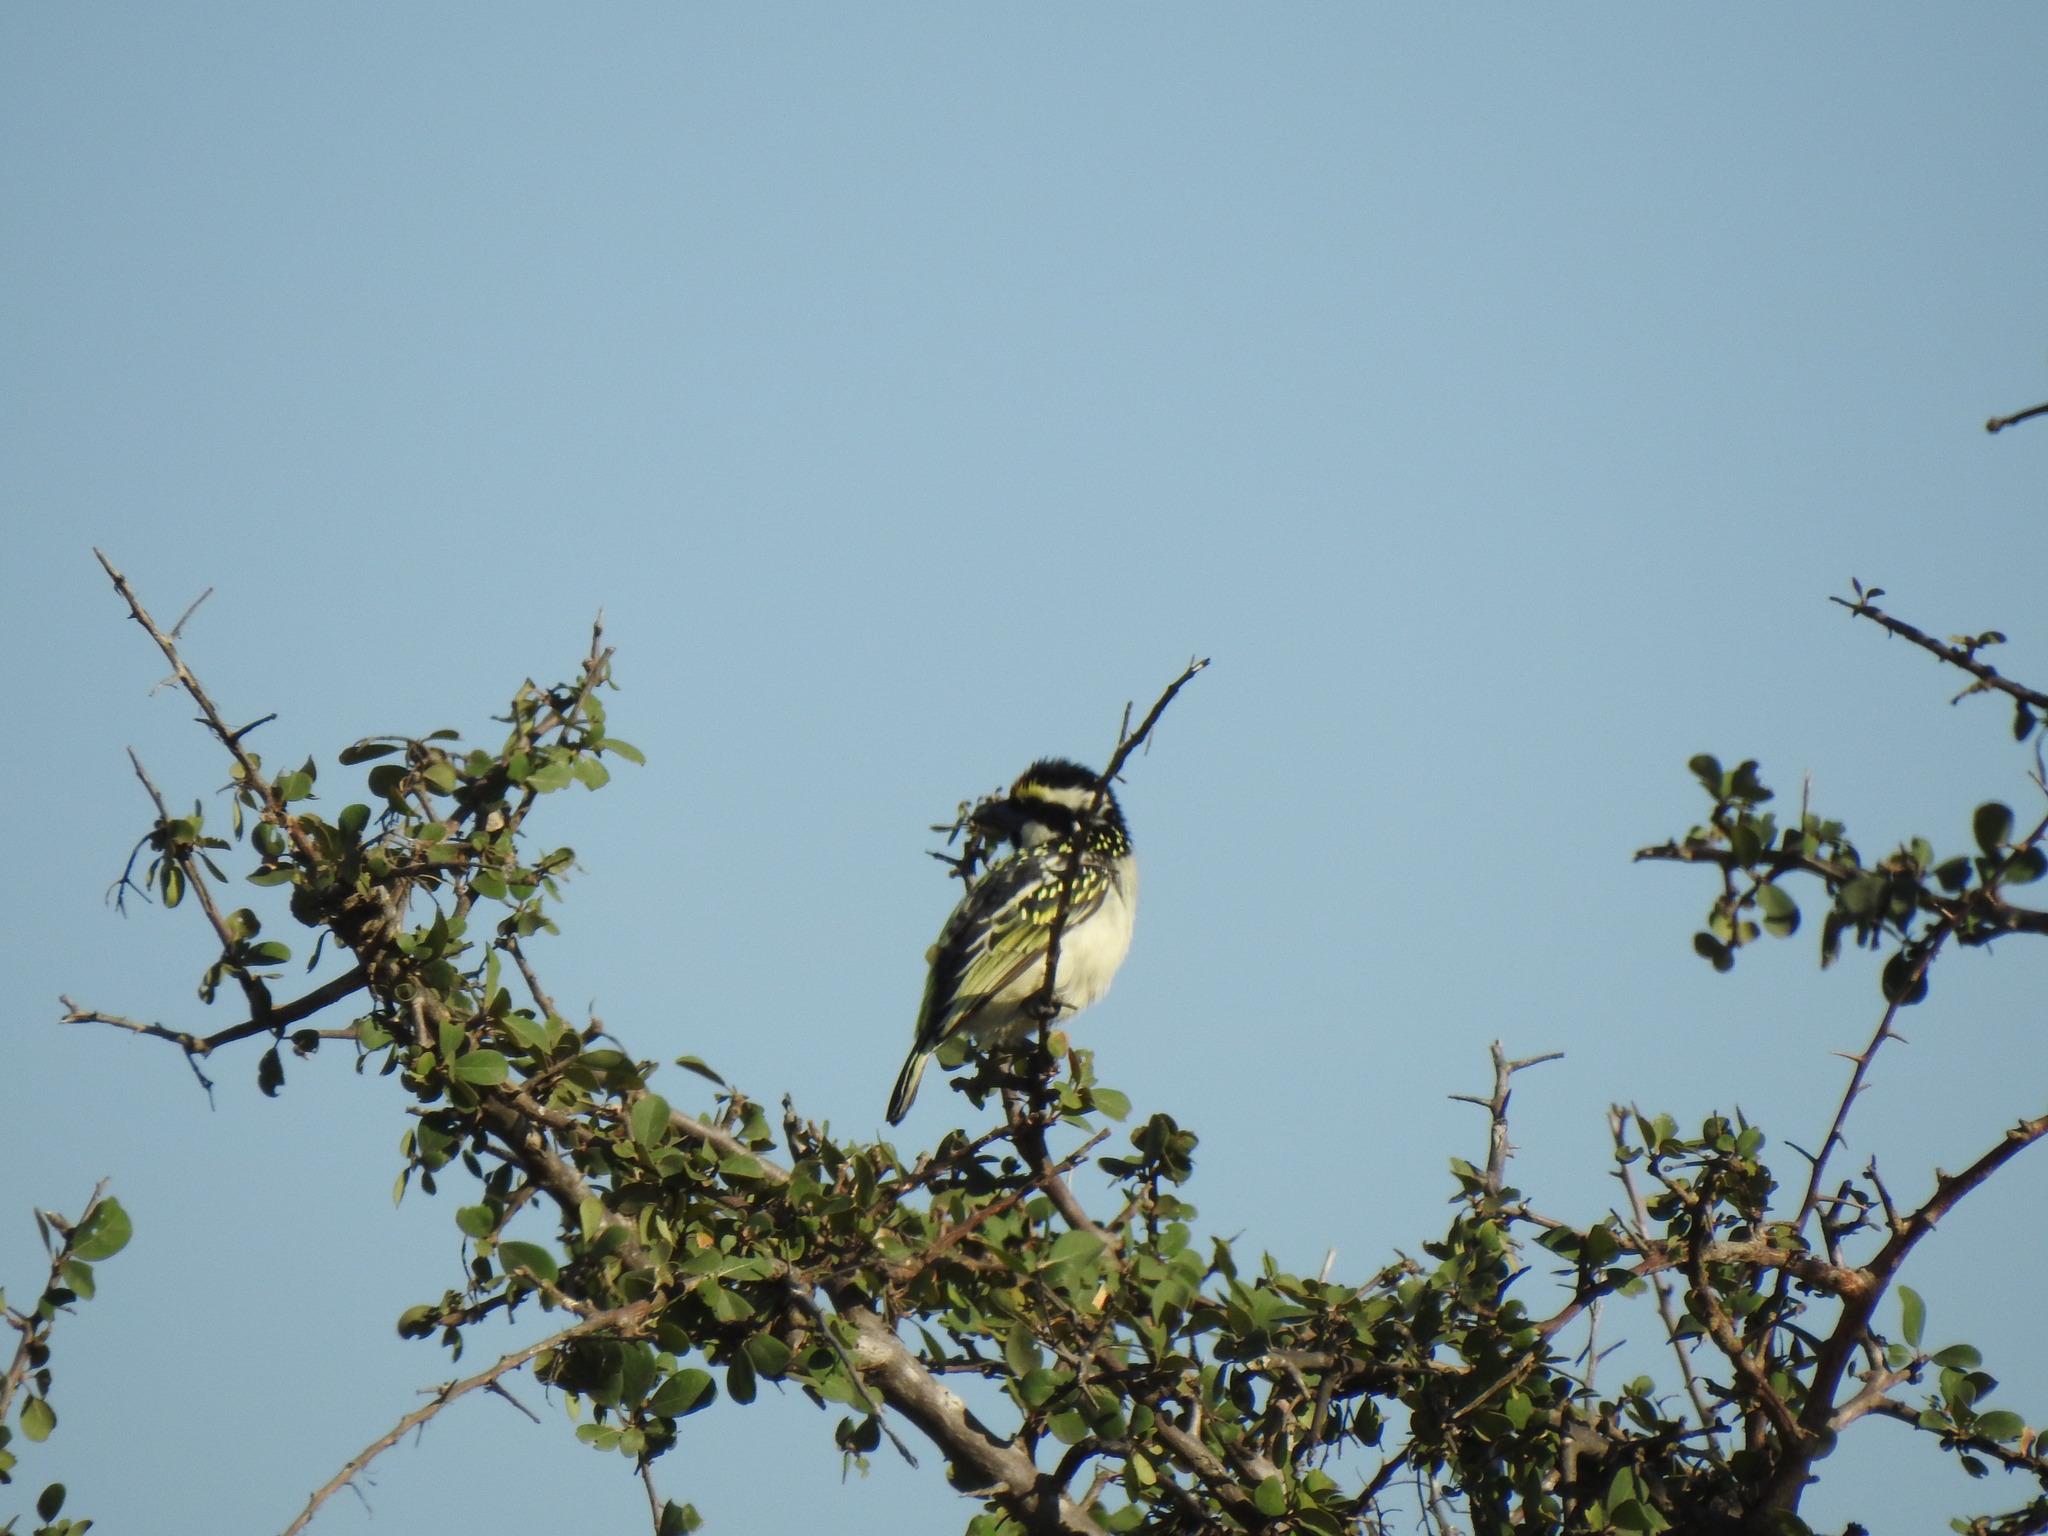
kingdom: Animalia
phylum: Chordata
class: Aves
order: Piciformes
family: Lybiidae
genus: Tricholaema
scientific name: Tricholaema leucomelas
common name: Acacia pied barbet
